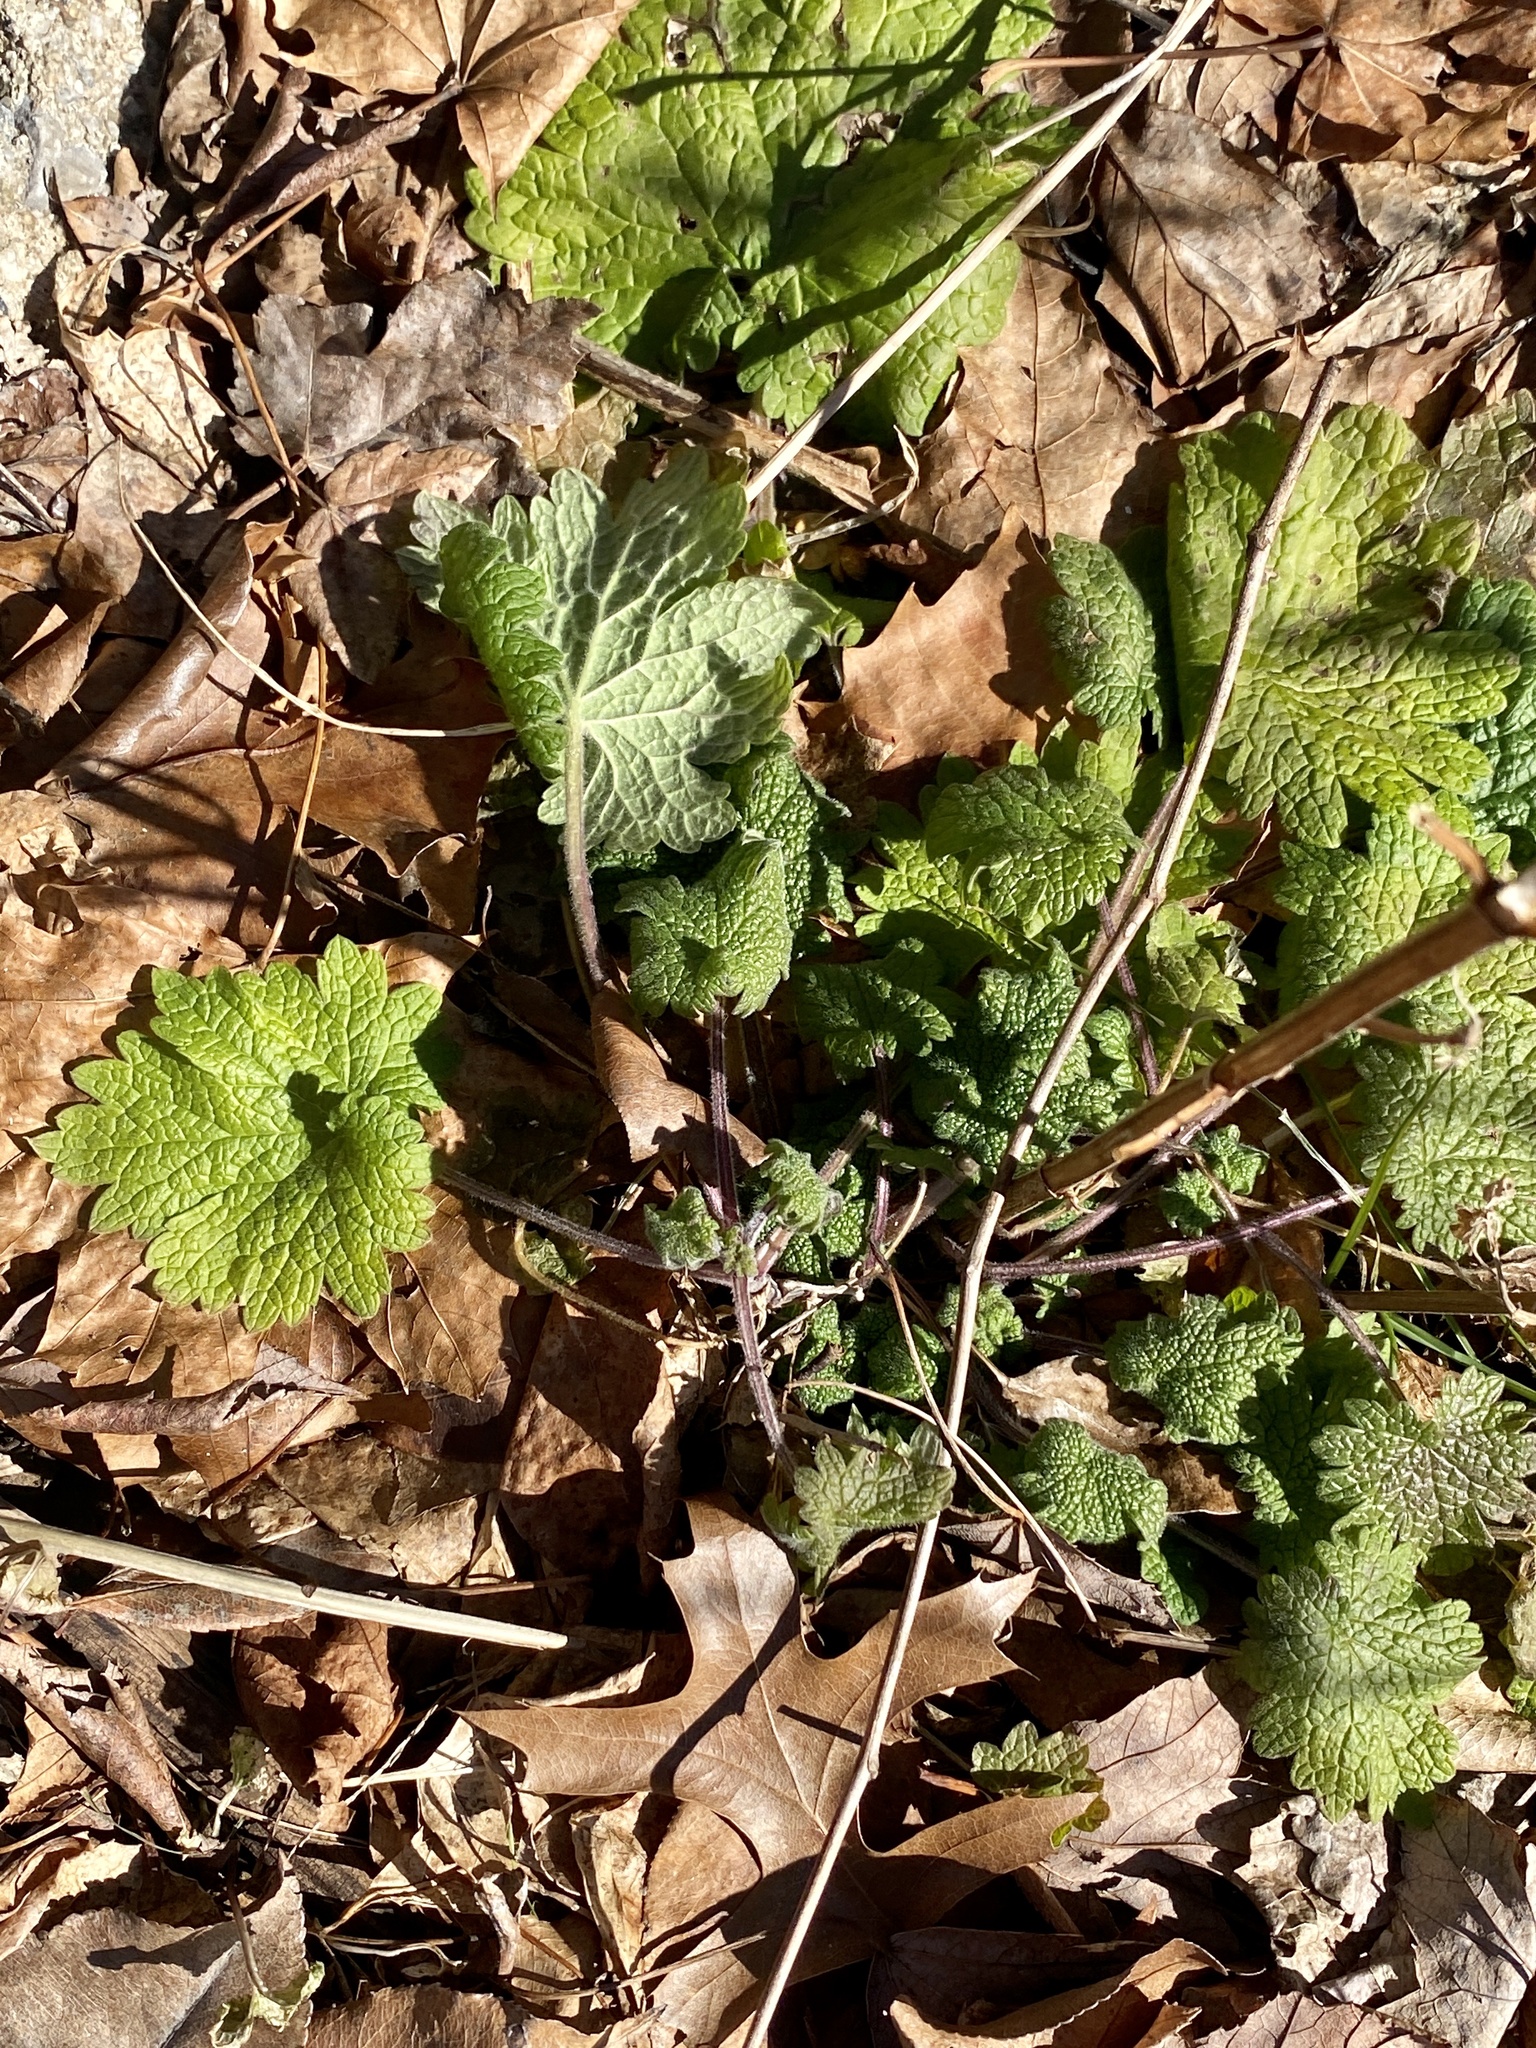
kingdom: Plantae
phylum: Tracheophyta
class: Magnoliopsida
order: Lamiales
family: Lamiaceae
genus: Leonurus
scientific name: Leonurus cardiaca
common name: Motherwort
